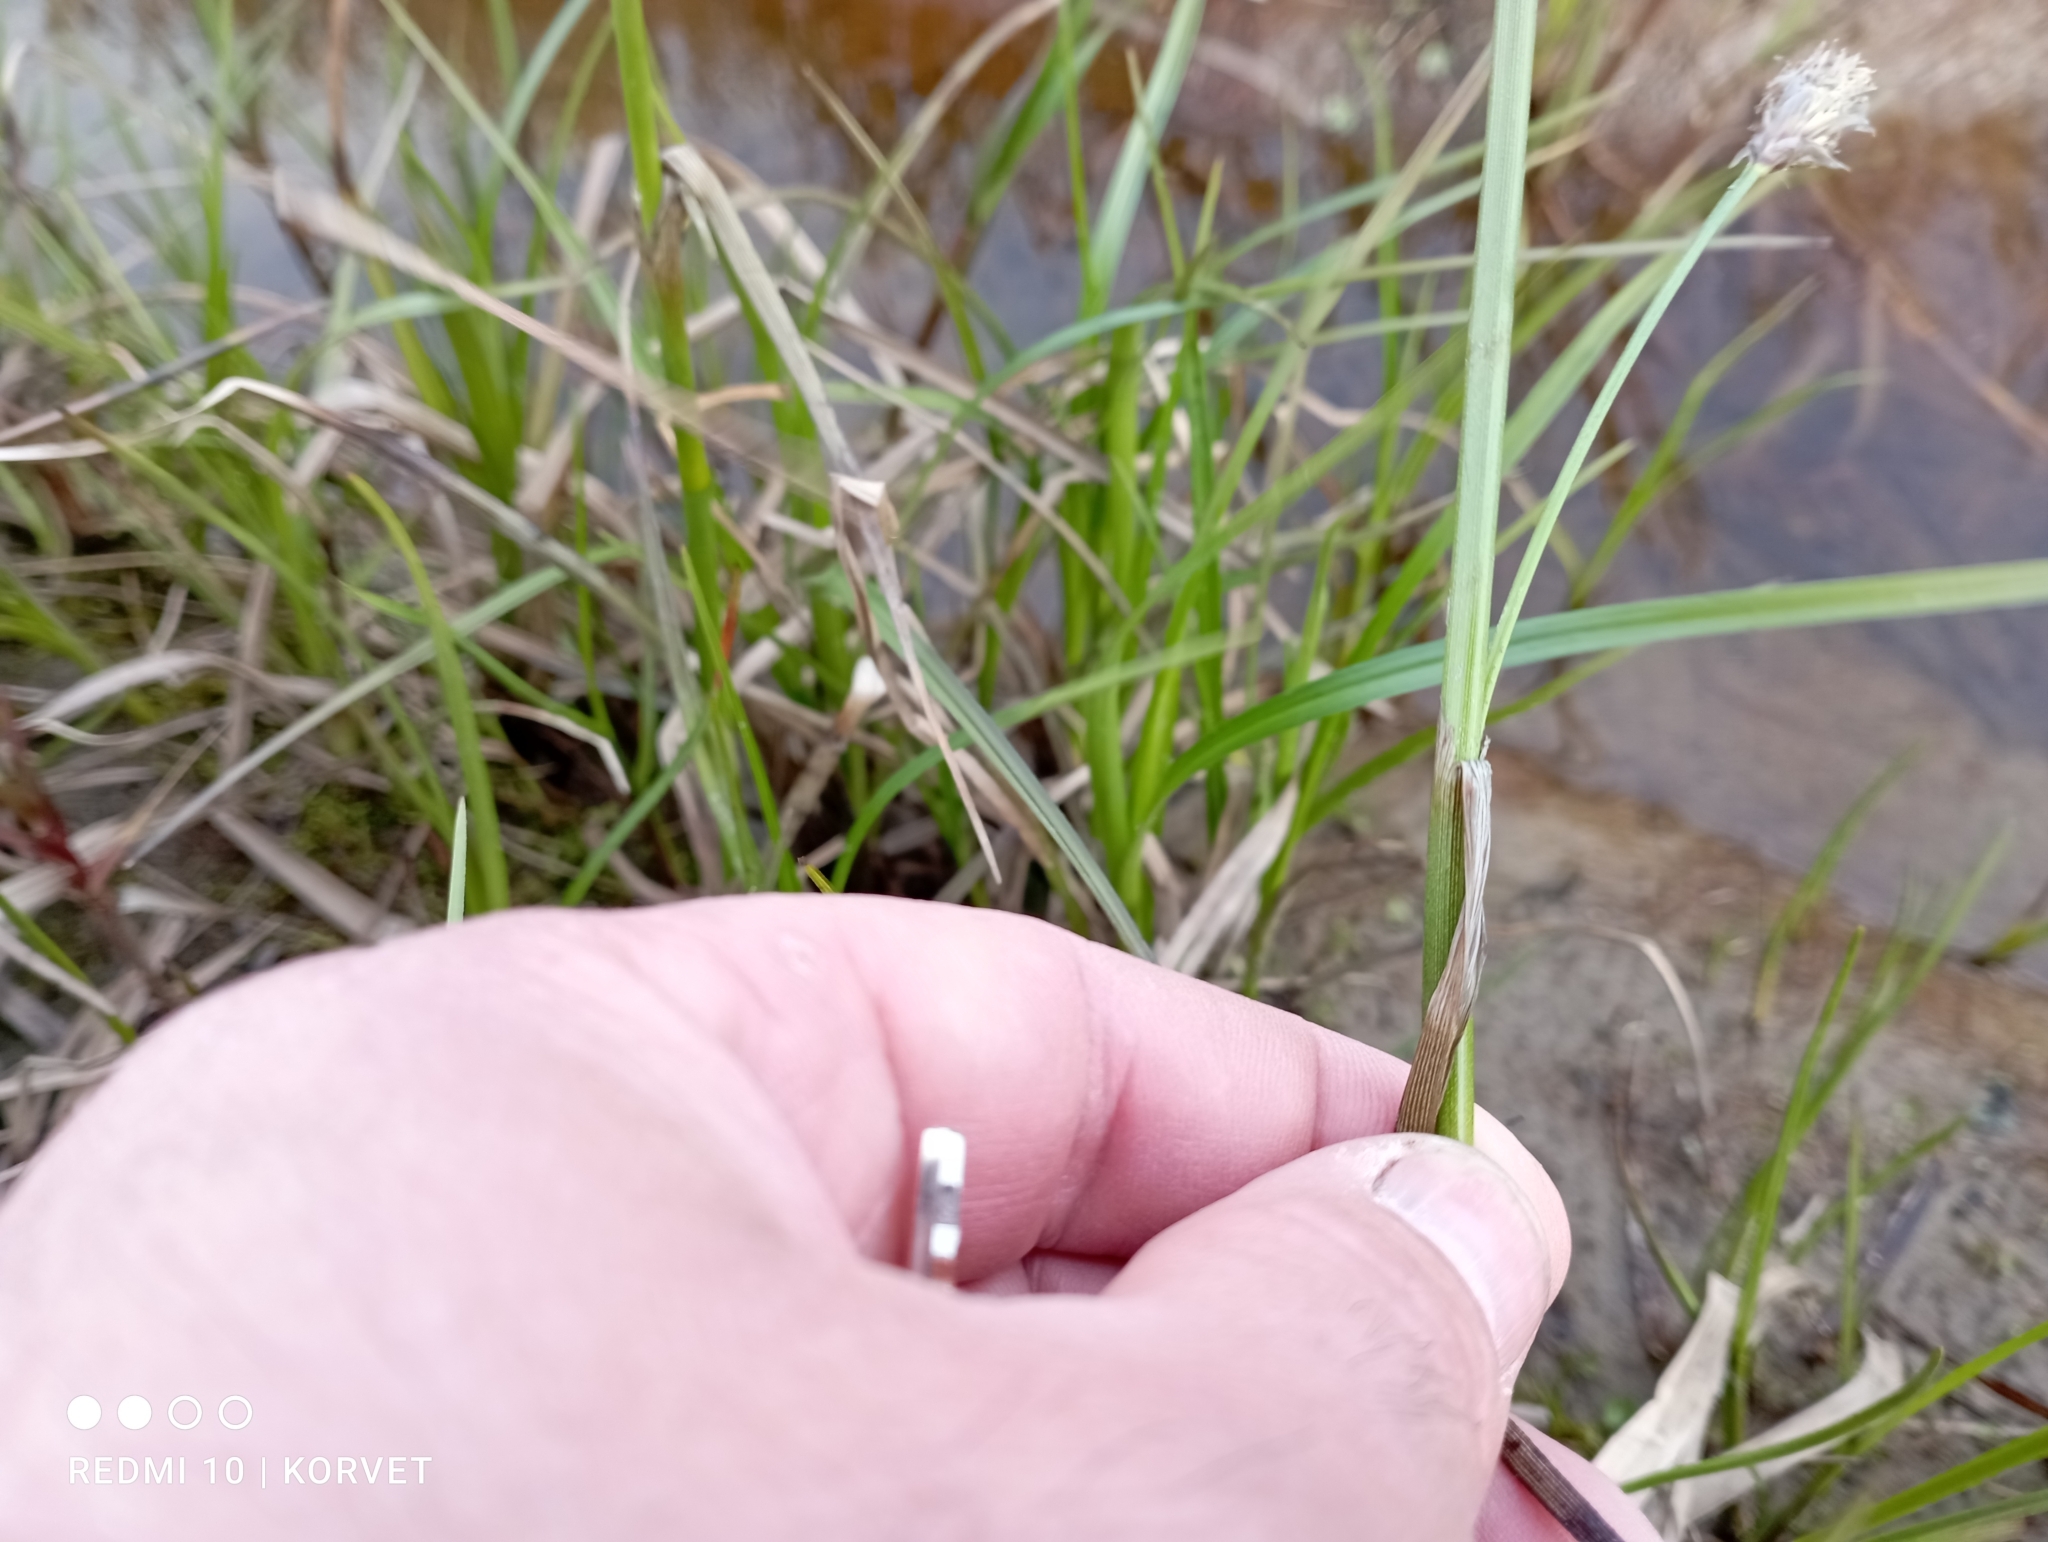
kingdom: Plantae
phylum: Tracheophyta
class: Liliopsida
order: Poales
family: Cyperaceae
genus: Eriophorum
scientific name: Eriophorum angustifolium
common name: Common cottongrass
